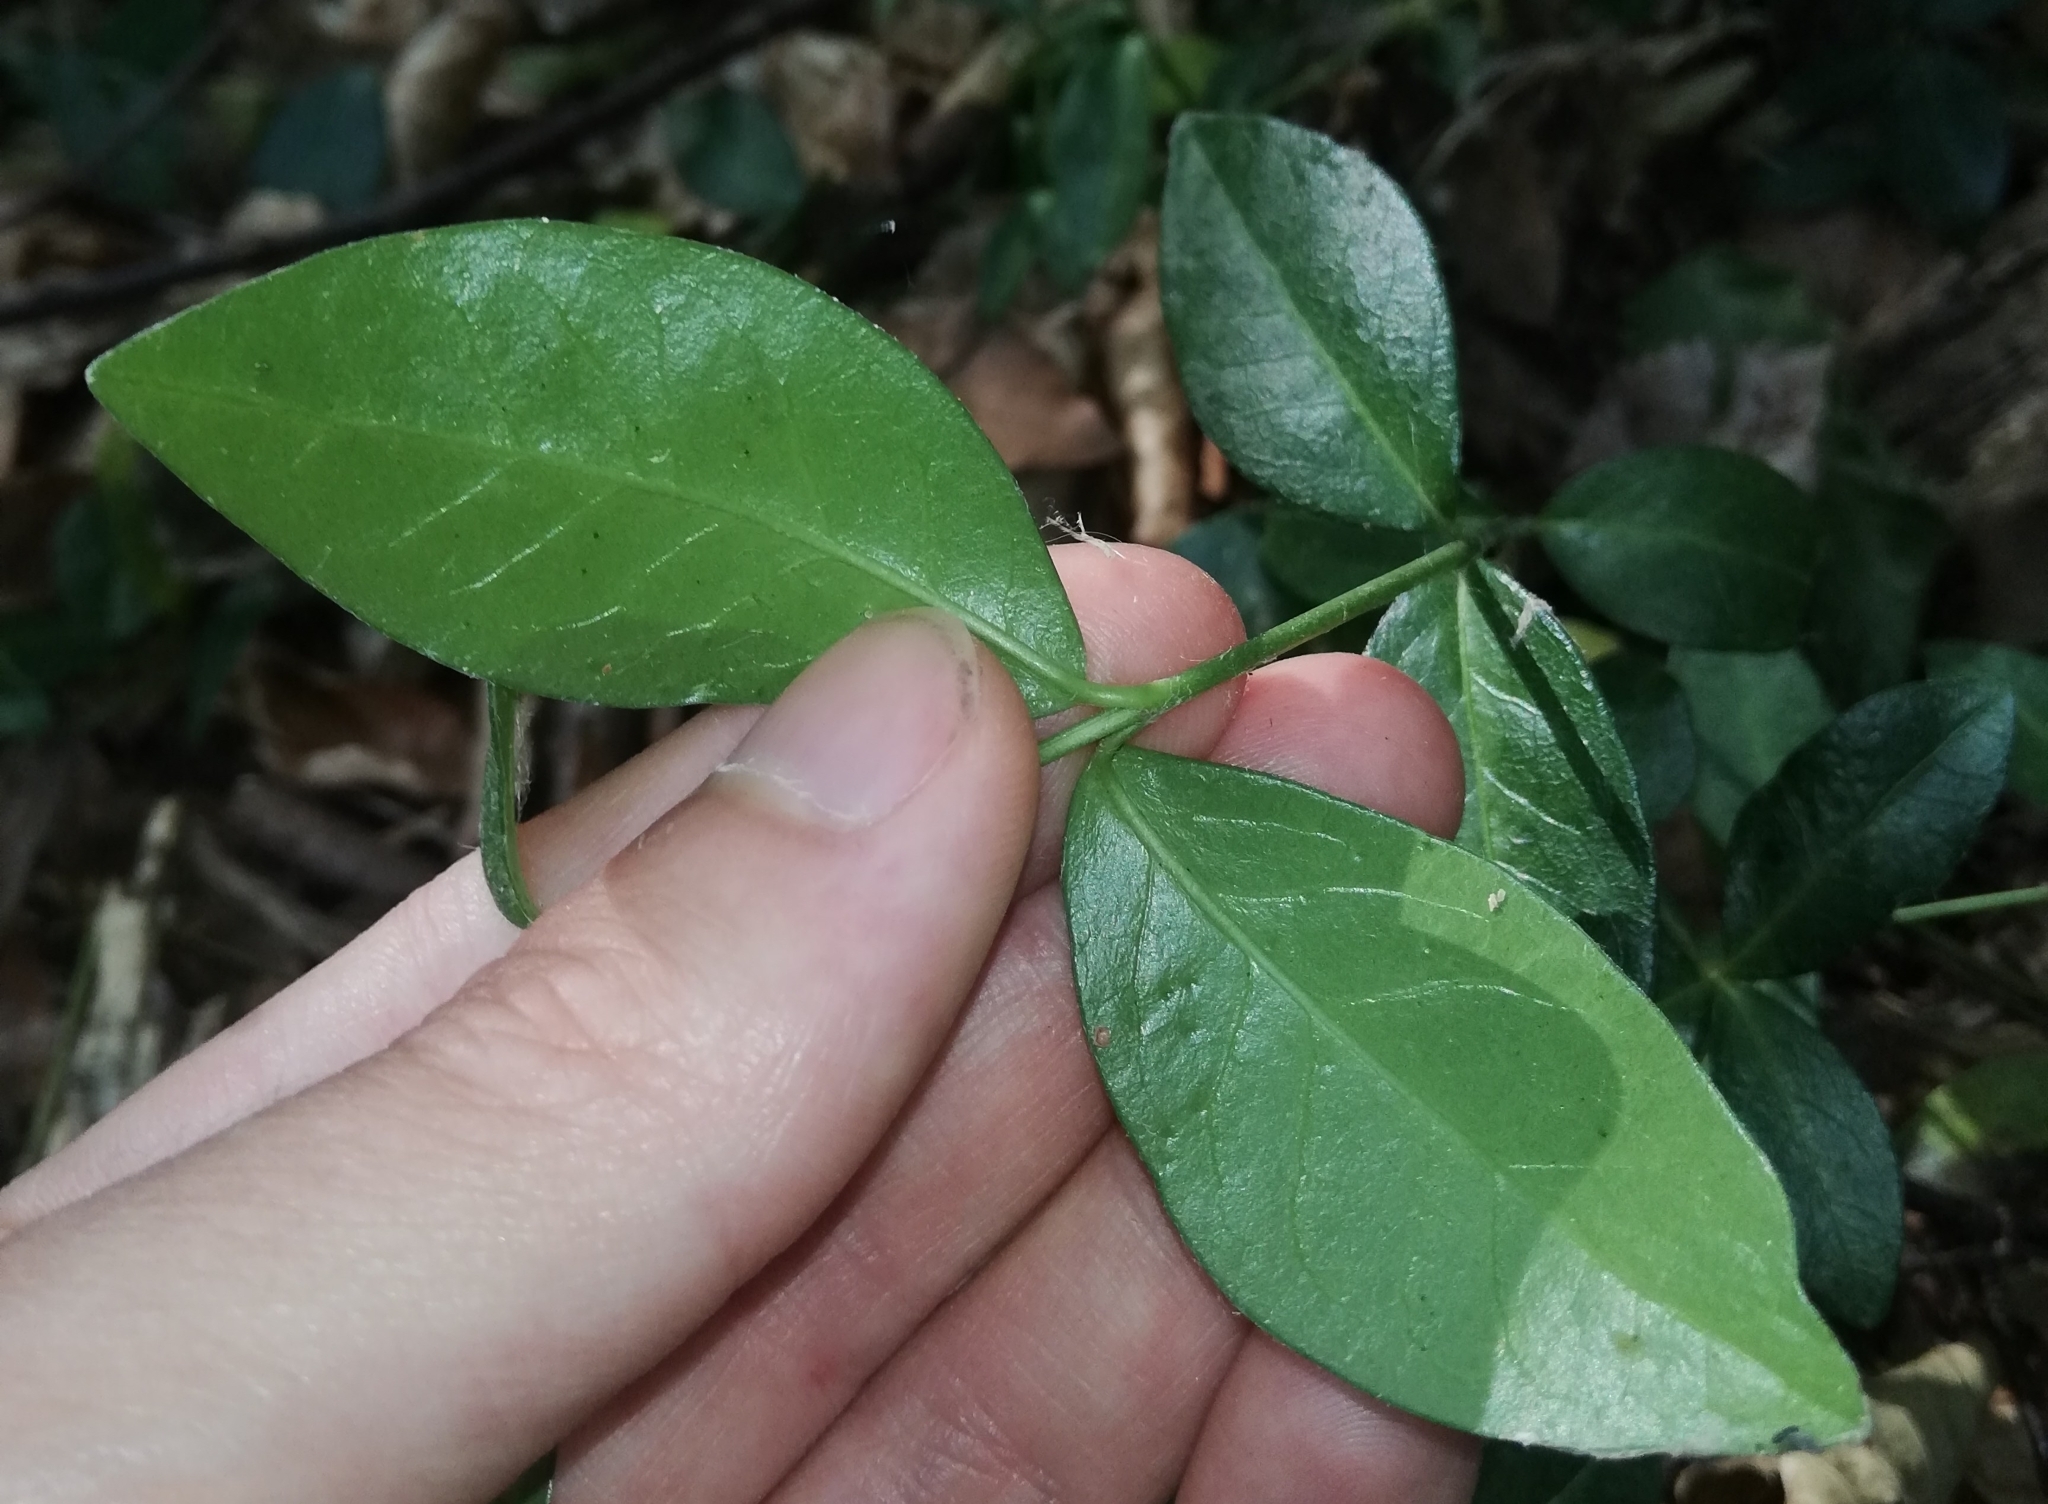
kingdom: Plantae
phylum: Tracheophyta
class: Magnoliopsida
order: Gentianales
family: Apocynaceae
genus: Vinca
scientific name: Vinca minor
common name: Lesser periwinkle
